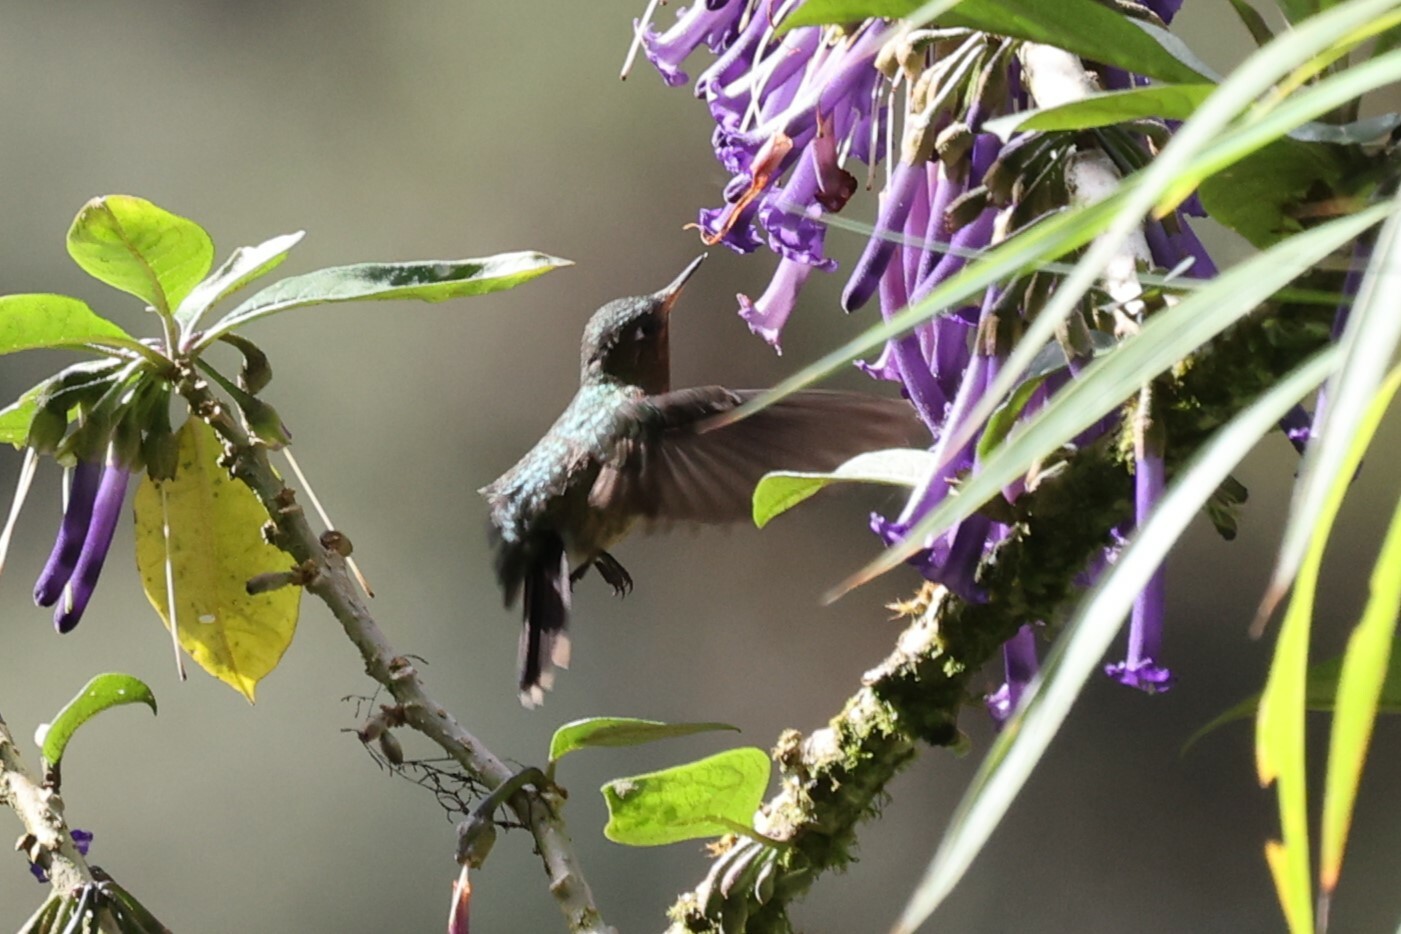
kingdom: Animalia
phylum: Chordata
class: Aves
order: Apodiformes
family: Trochilidae
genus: Metallura
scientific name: Metallura tyrianthina
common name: Tyrian metaltail
